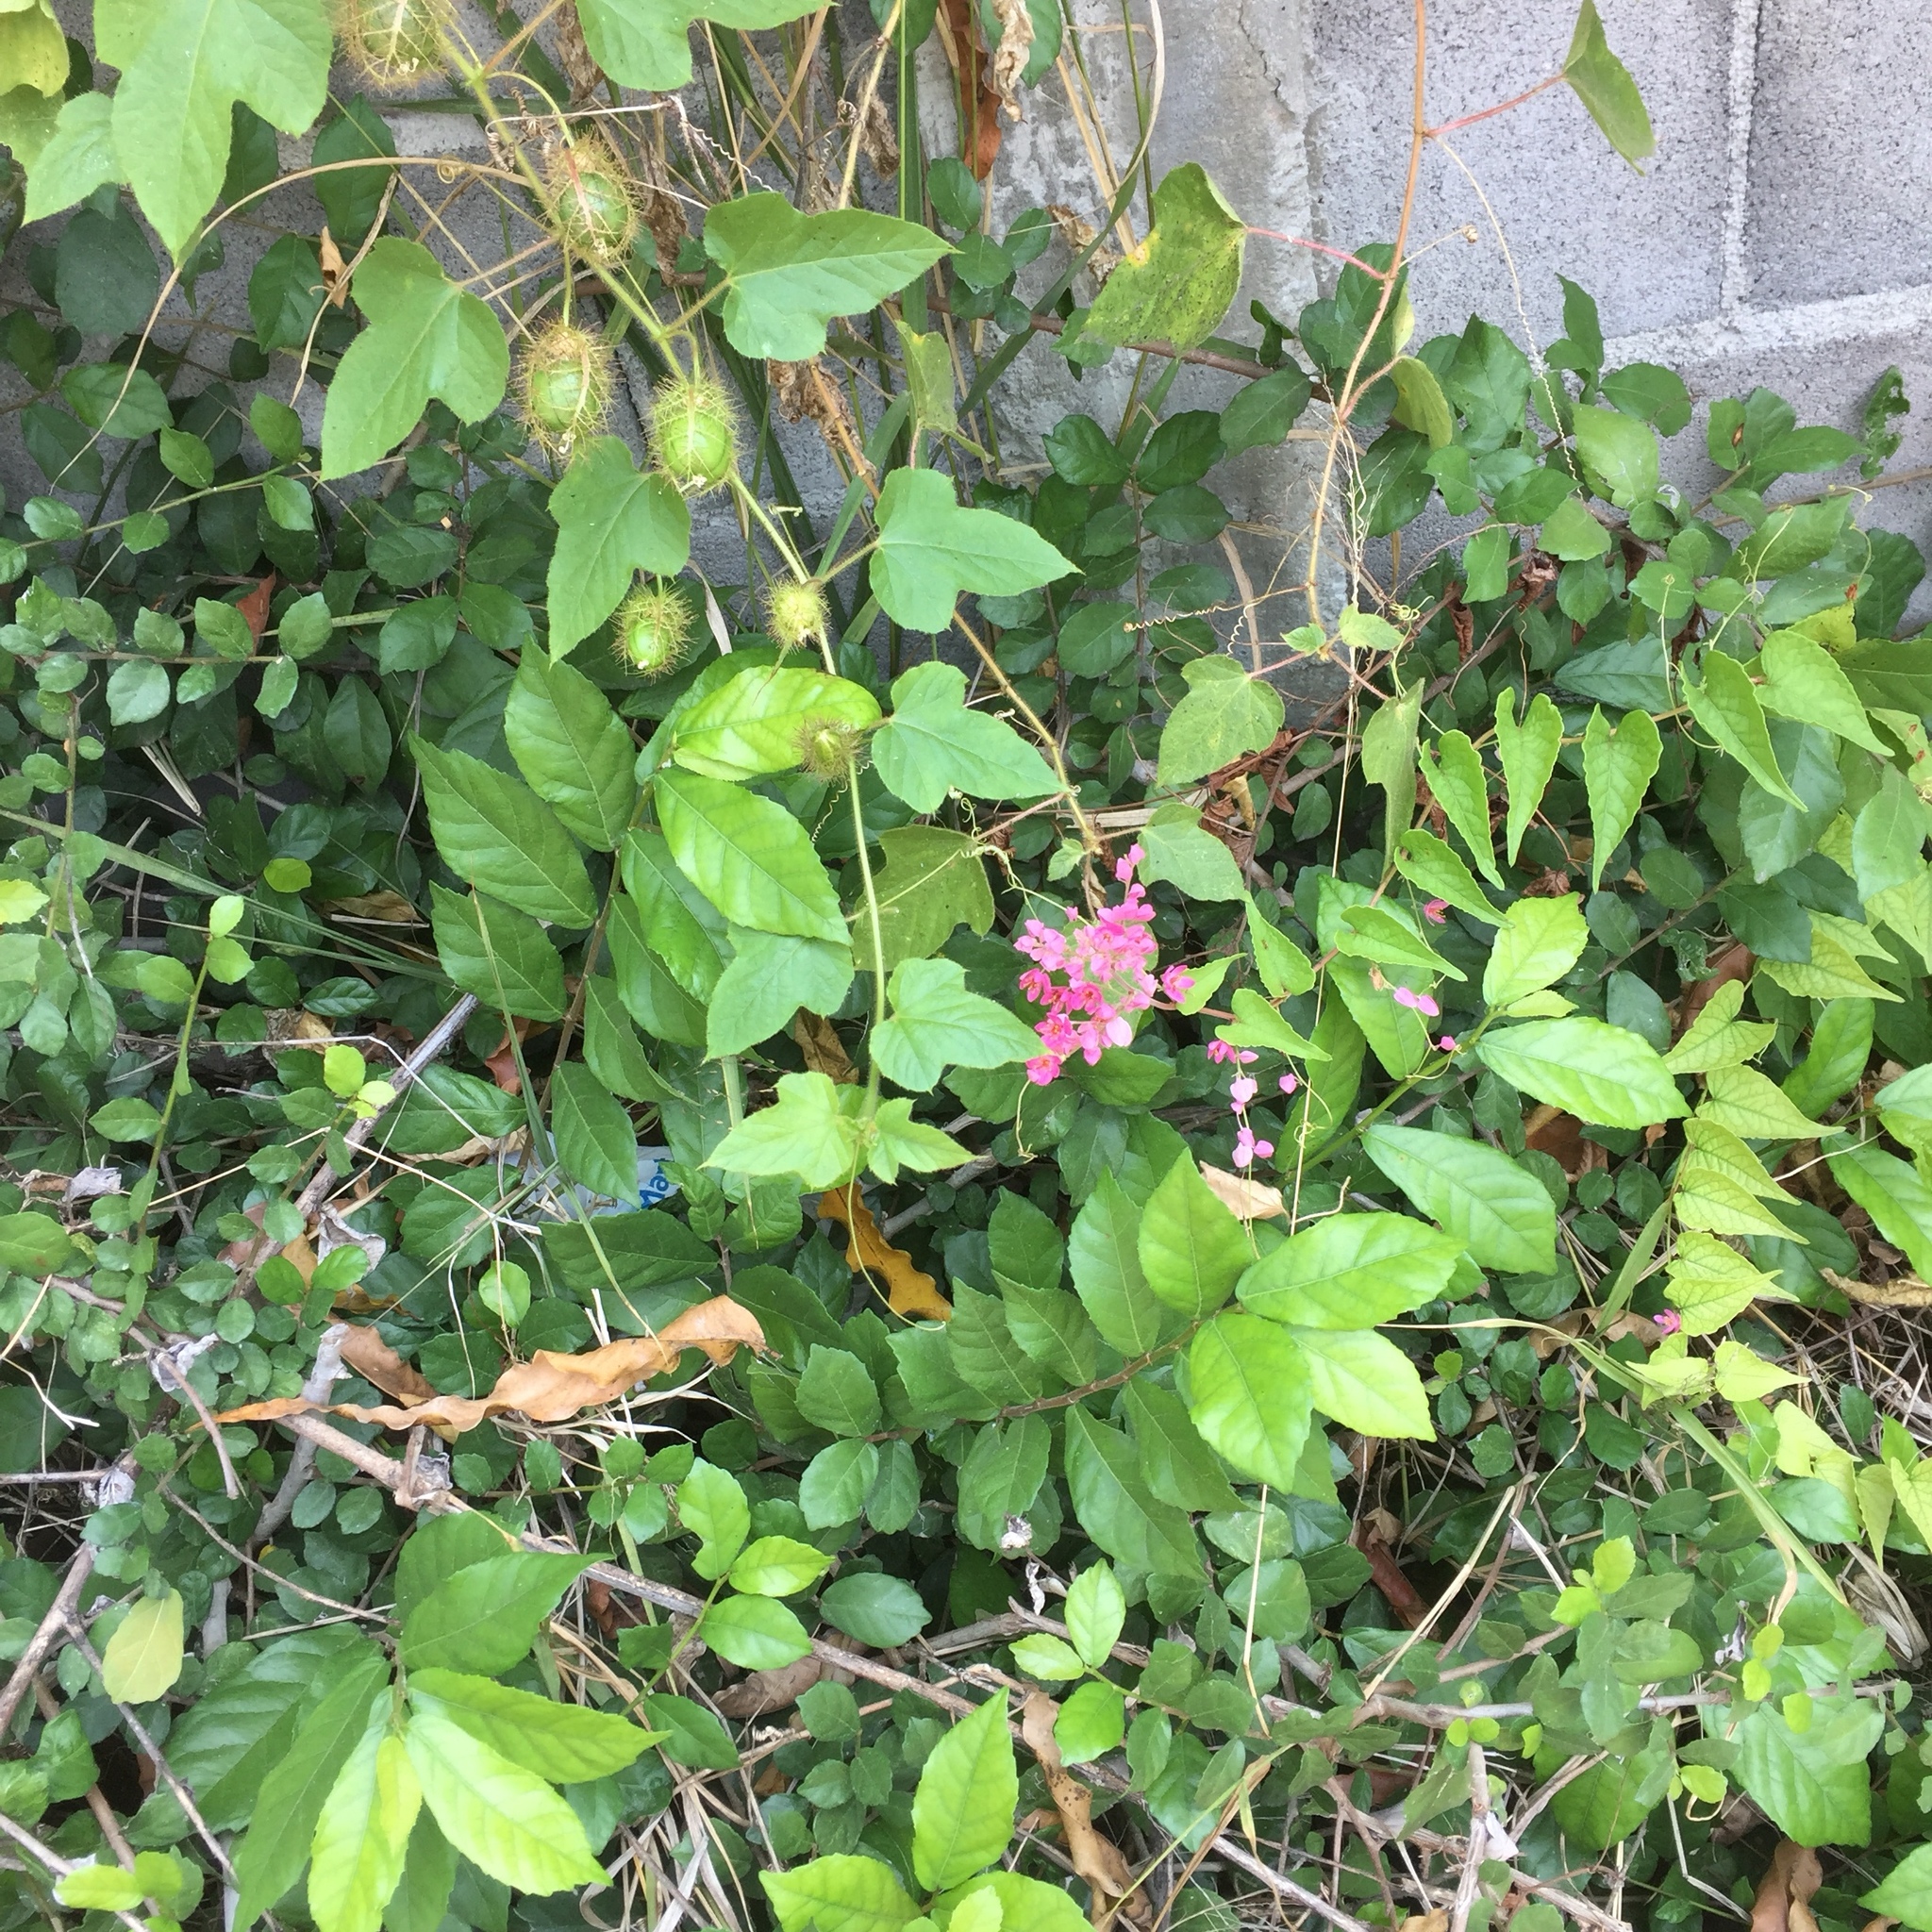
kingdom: Plantae
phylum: Tracheophyta
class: Magnoliopsida
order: Caryophyllales
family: Polygonaceae
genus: Antigonon
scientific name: Antigonon leptopus
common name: Coral vine
